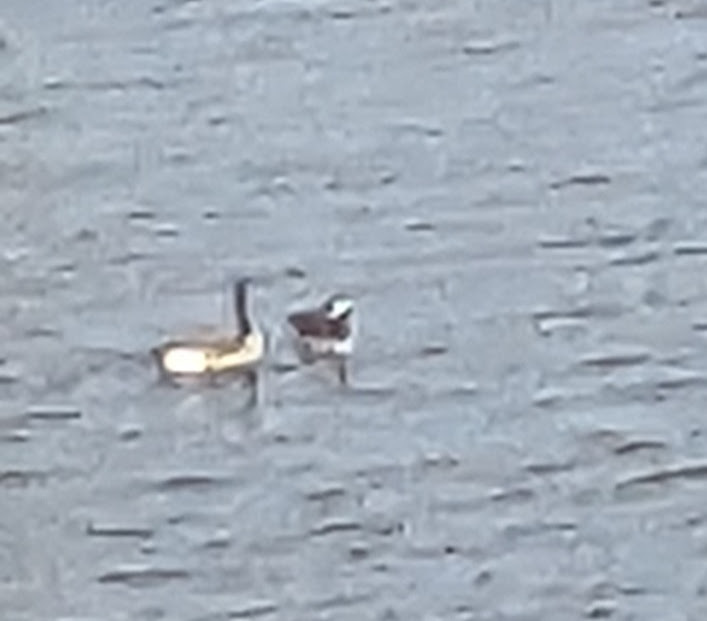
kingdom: Animalia
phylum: Chordata
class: Aves
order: Anseriformes
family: Anatidae
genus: Branta
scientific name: Branta canadensis
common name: Canada goose
